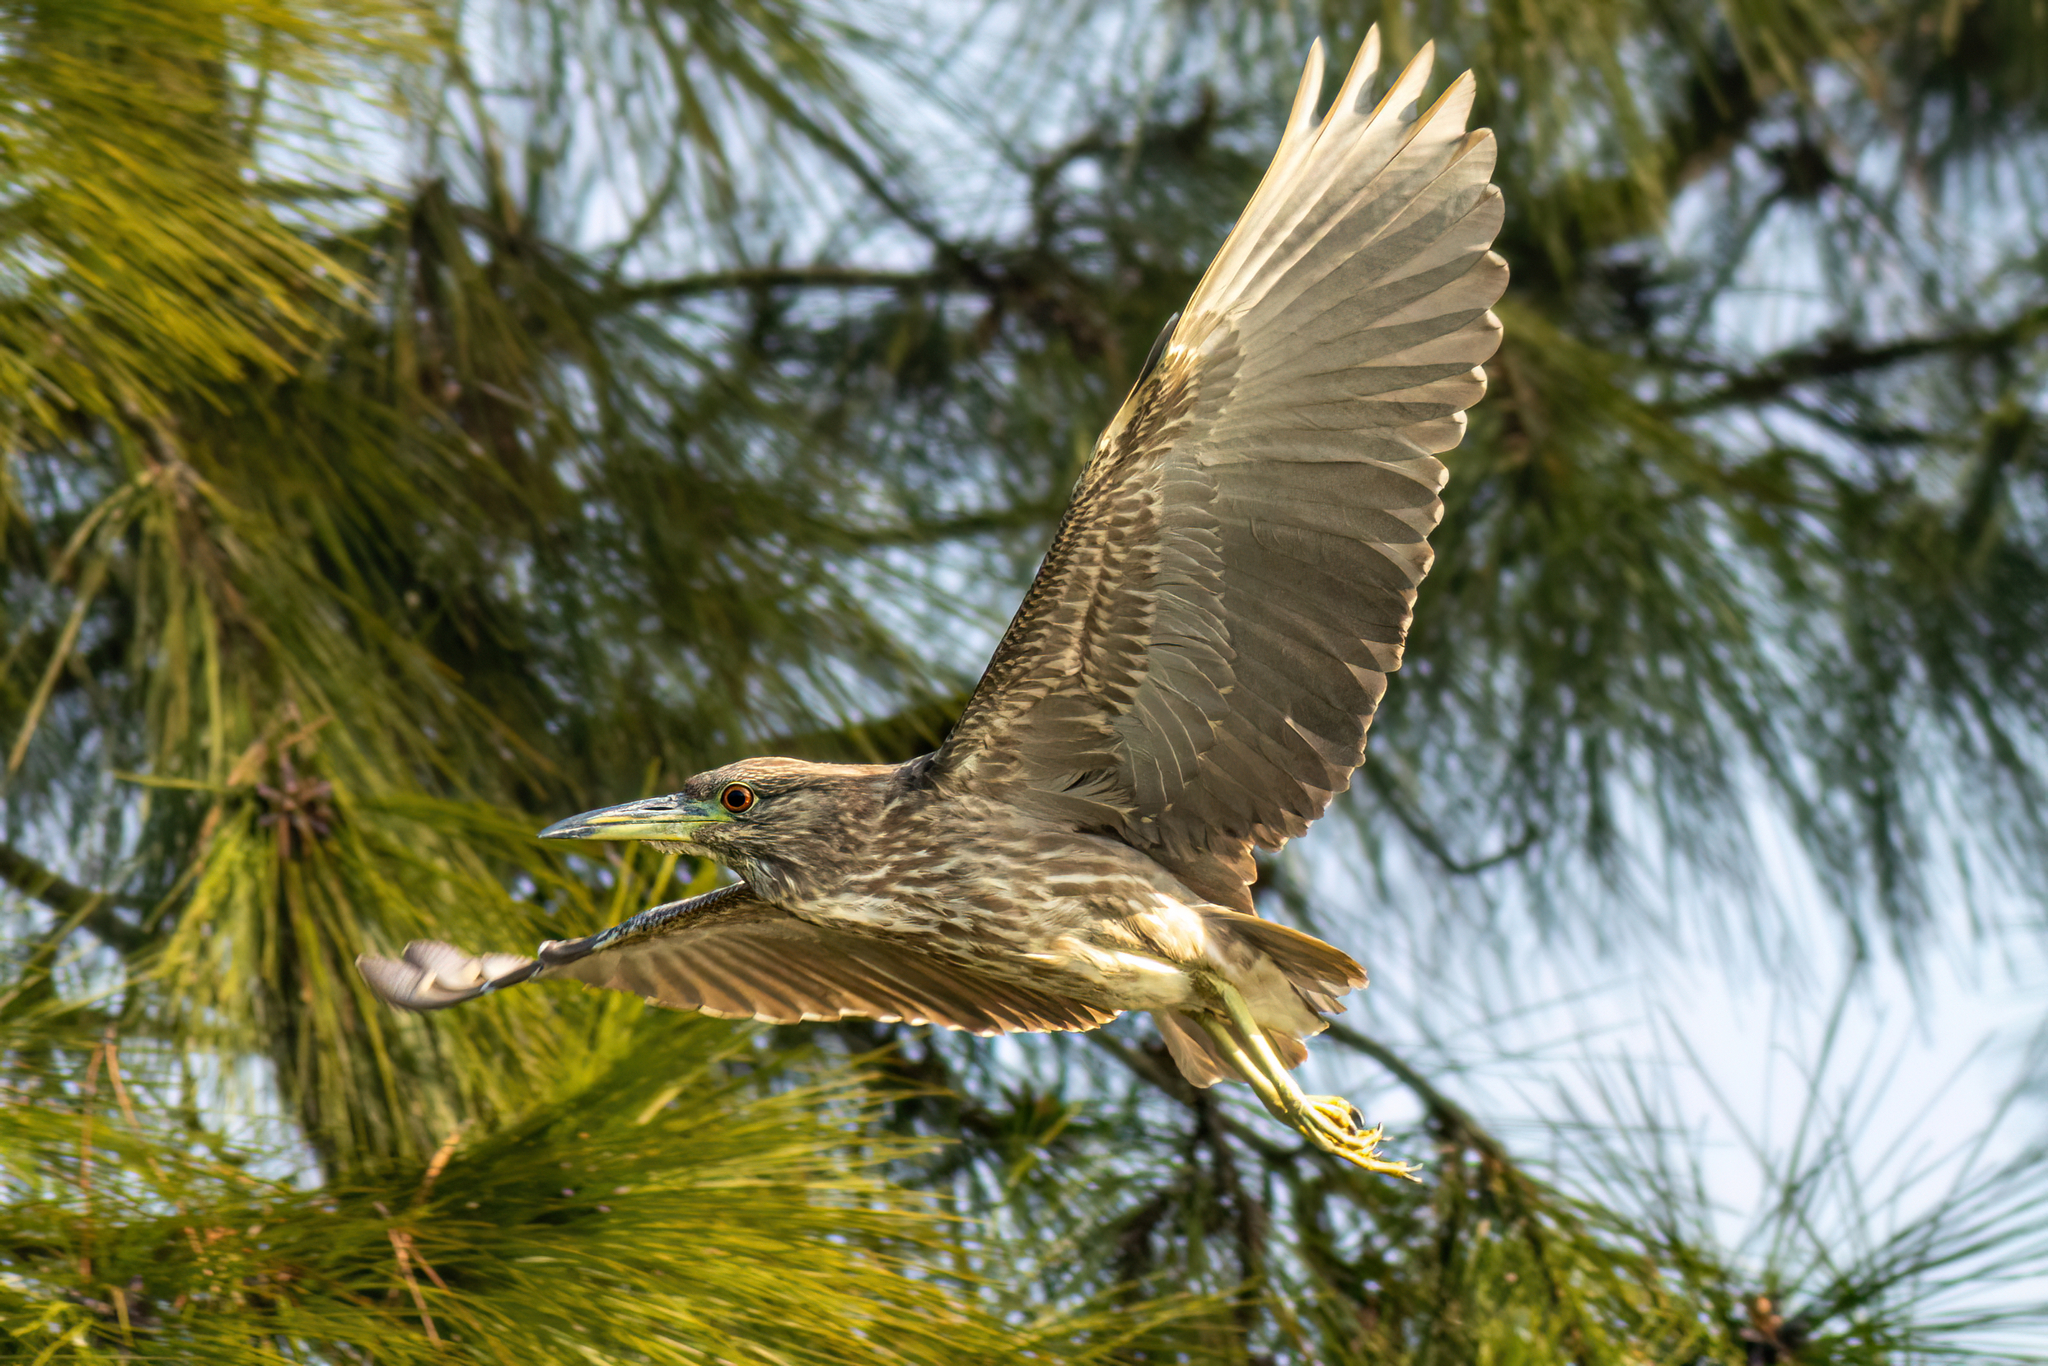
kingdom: Animalia
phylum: Chordata
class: Aves
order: Pelecaniformes
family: Ardeidae
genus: Nycticorax
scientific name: Nycticorax nycticorax
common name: Black-crowned night heron
